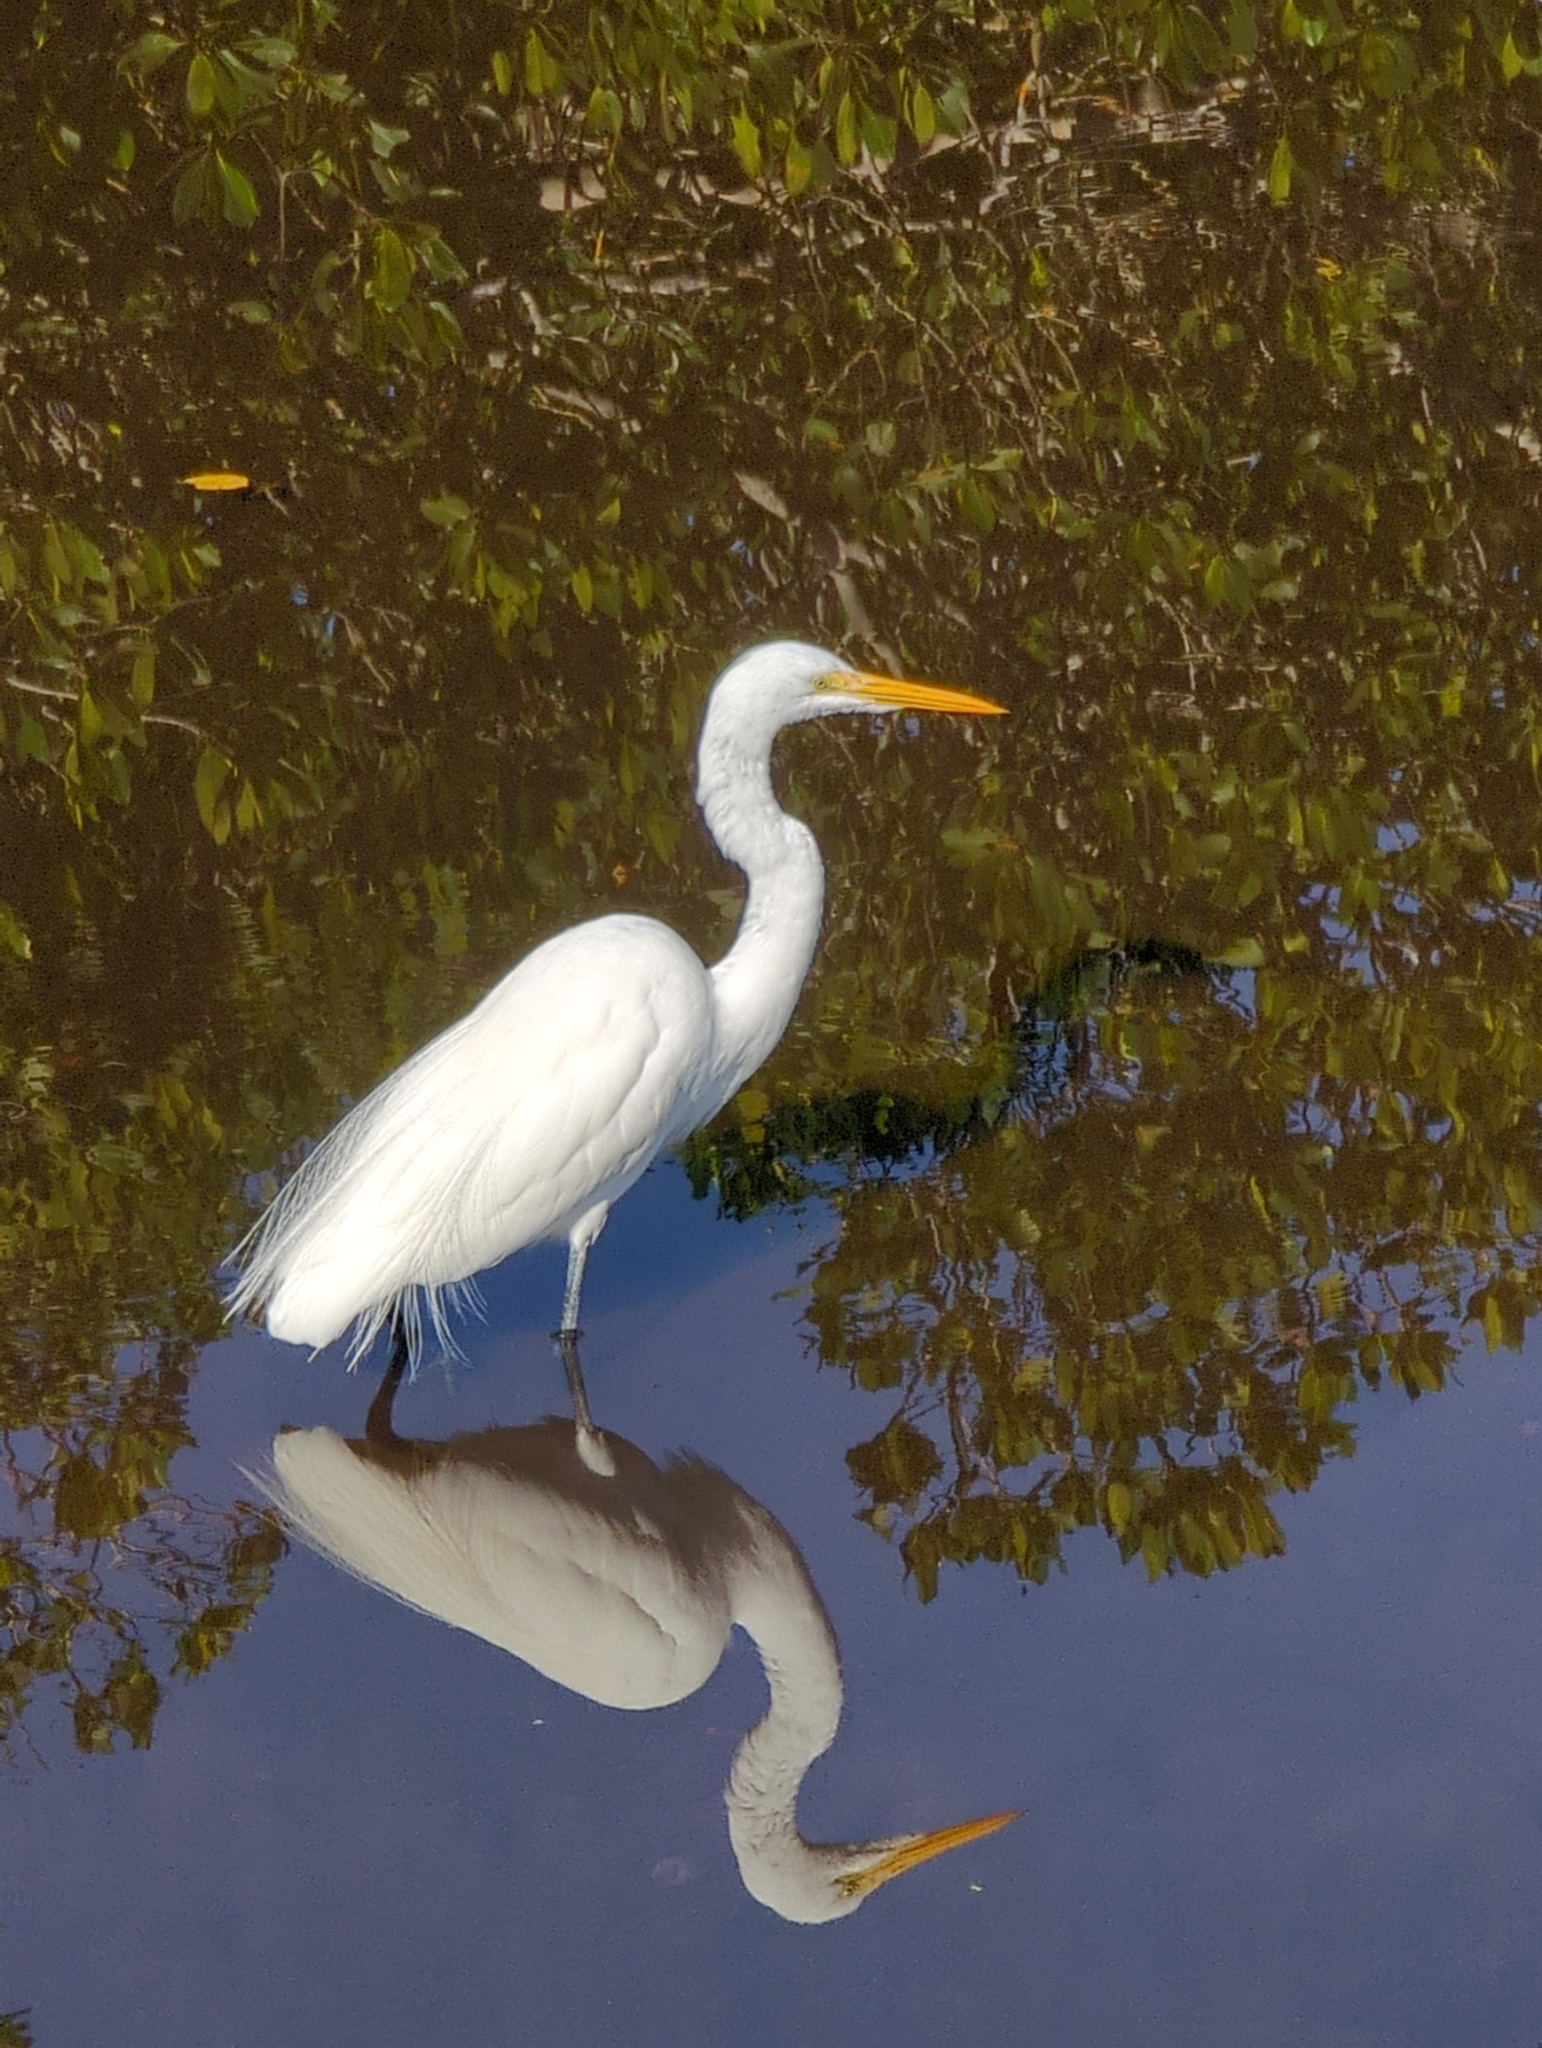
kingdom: Animalia
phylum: Chordata
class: Aves
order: Pelecaniformes
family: Ardeidae
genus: Ardea
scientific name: Ardea alba
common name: Great egret
